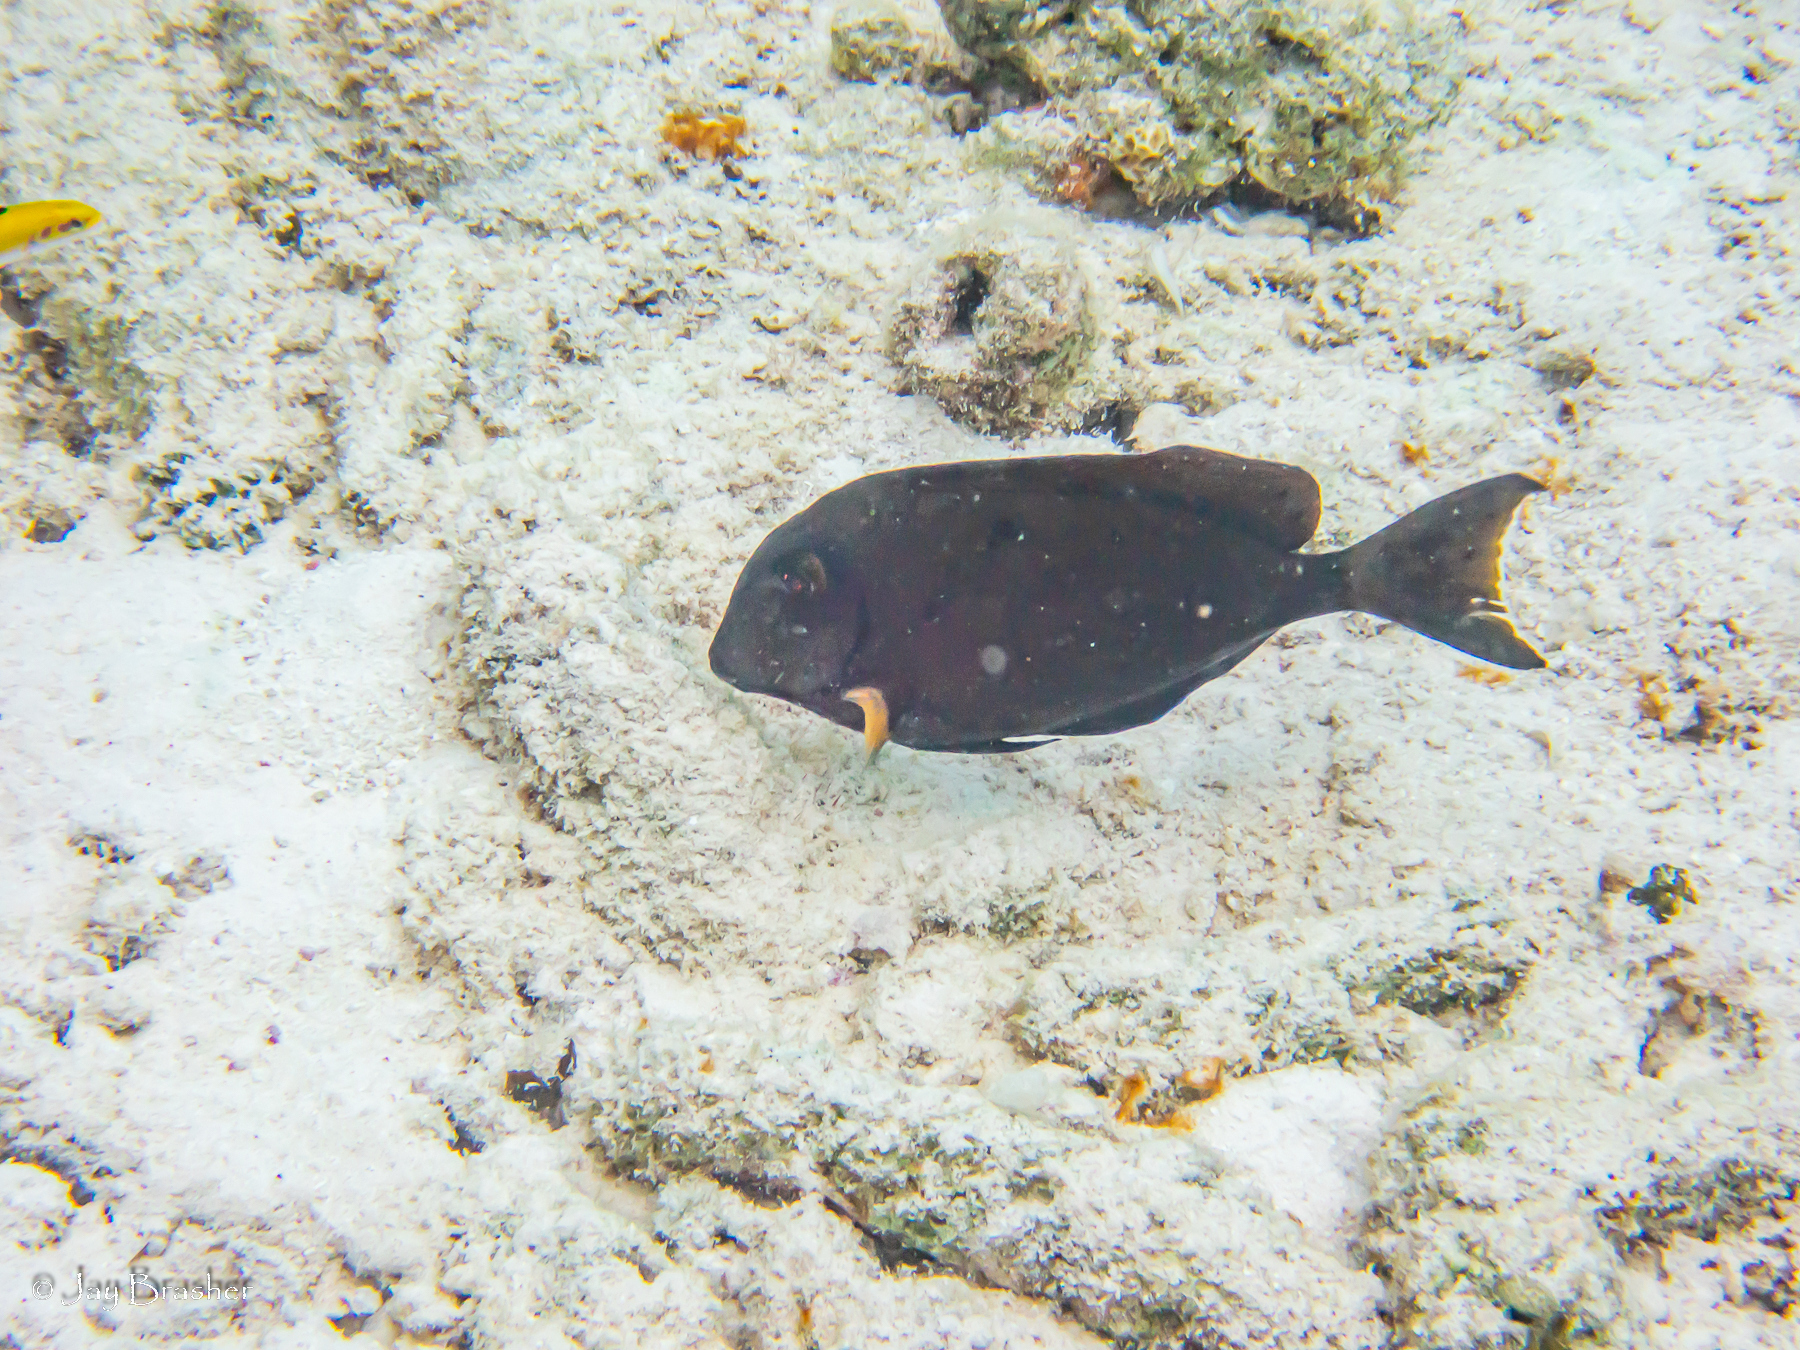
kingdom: Animalia
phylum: Chordata
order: Perciformes
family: Acanthuridae
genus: Acanthurus
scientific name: Acanthurus bahianus
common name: Ocean surgeon
